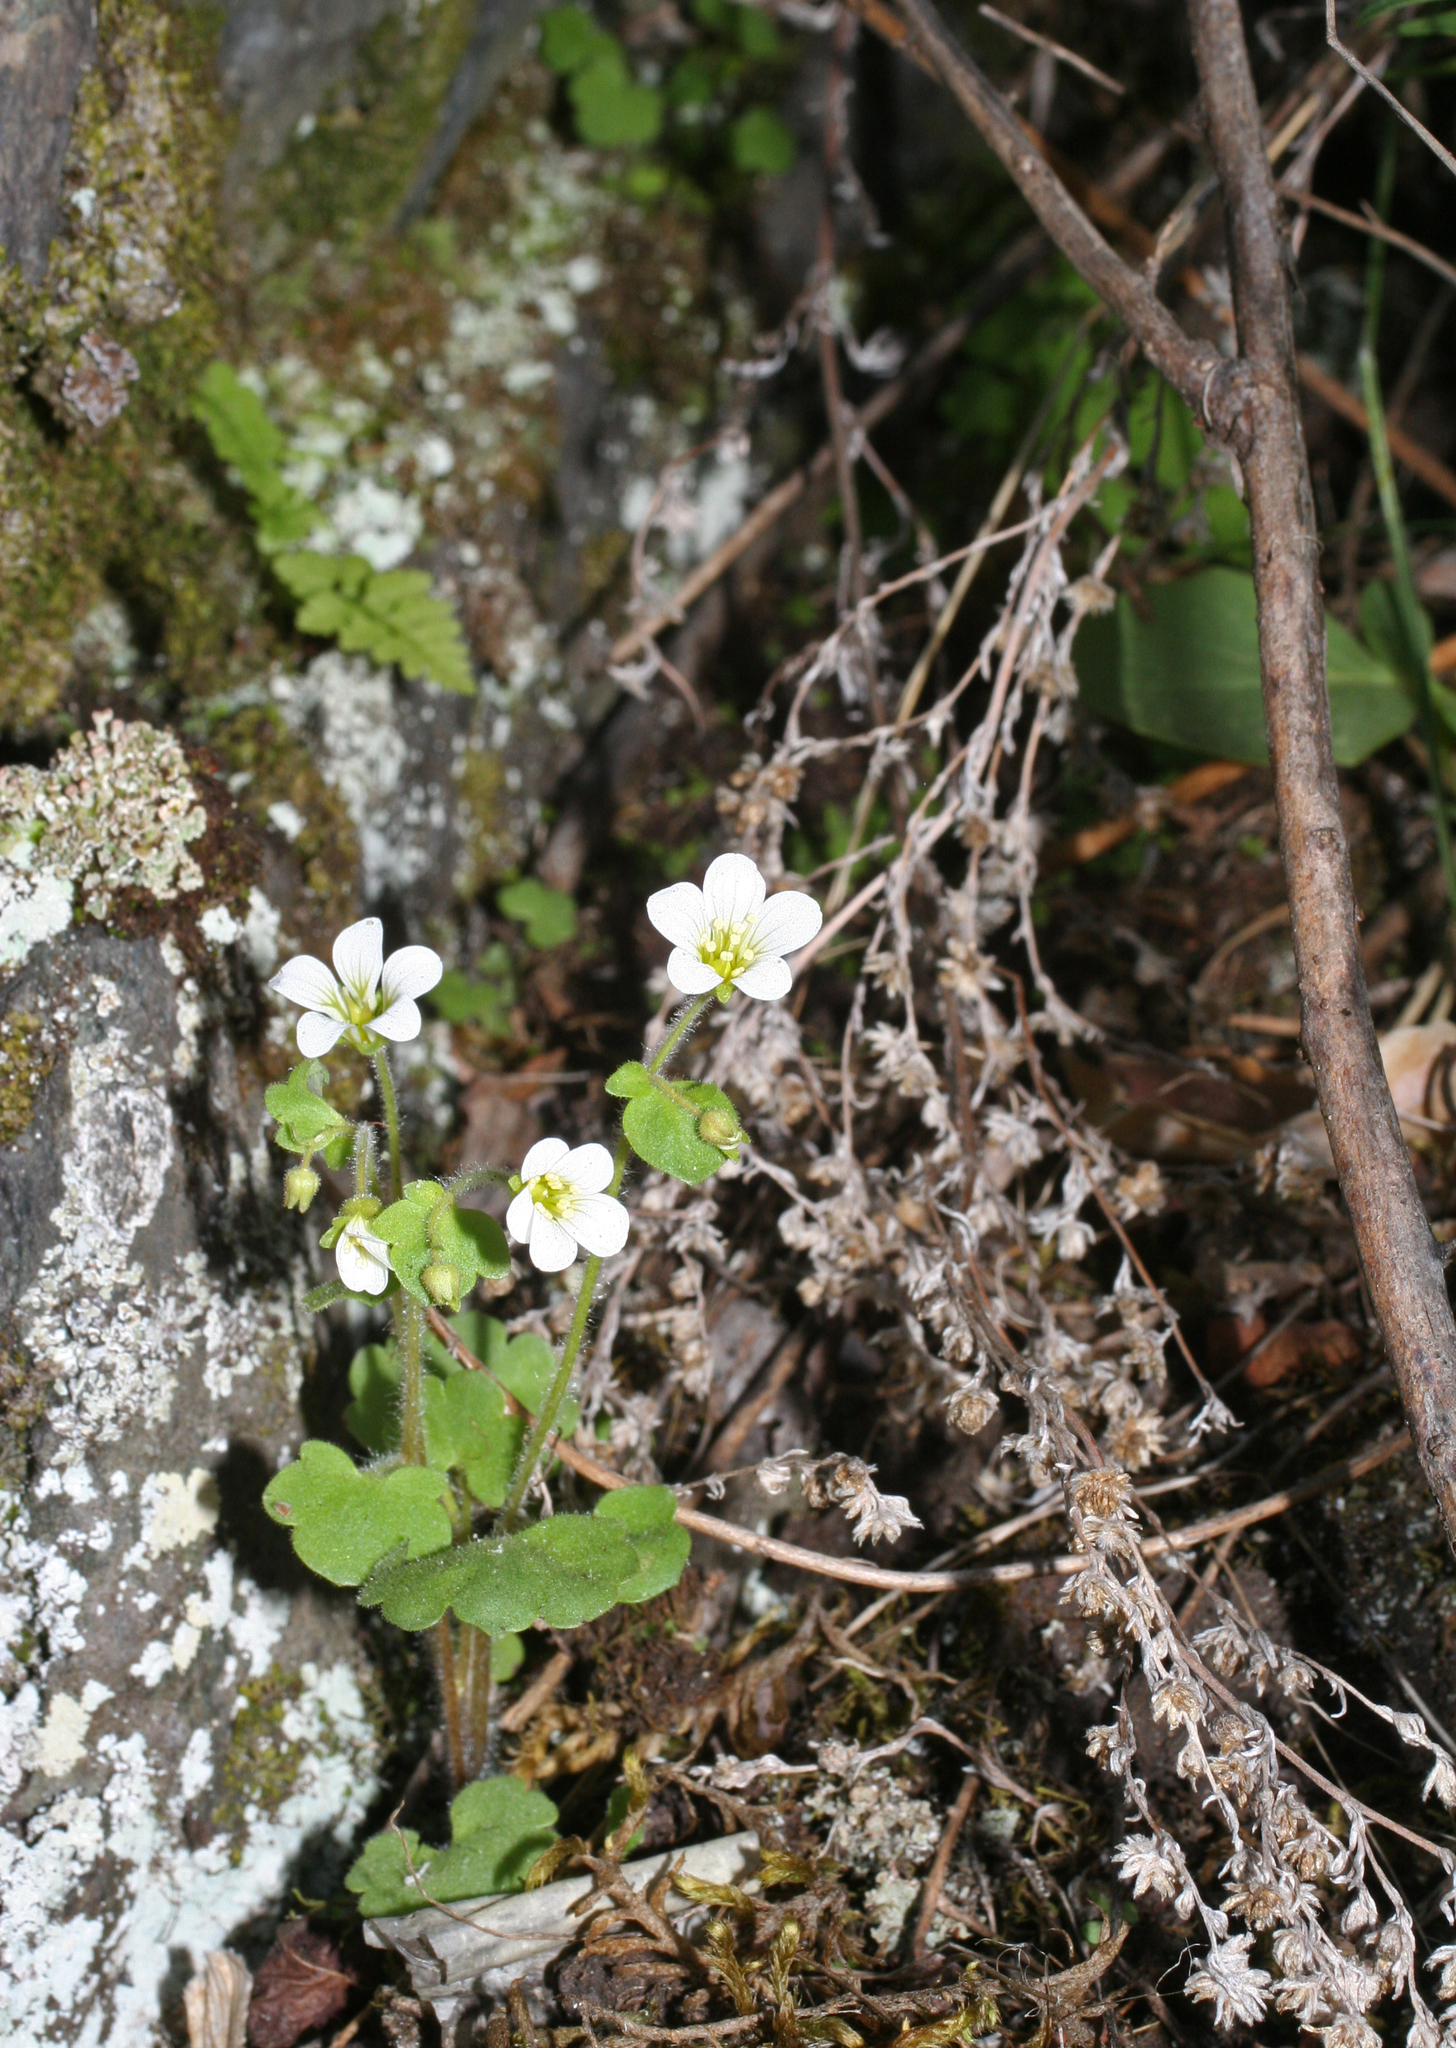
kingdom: Plantae
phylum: Tracheophyta
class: Magnoliopsida
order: Saxifragales
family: Saxifragaceae
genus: Saxifraga
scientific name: Saxifraga sibirica
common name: Siberian saxifrage
